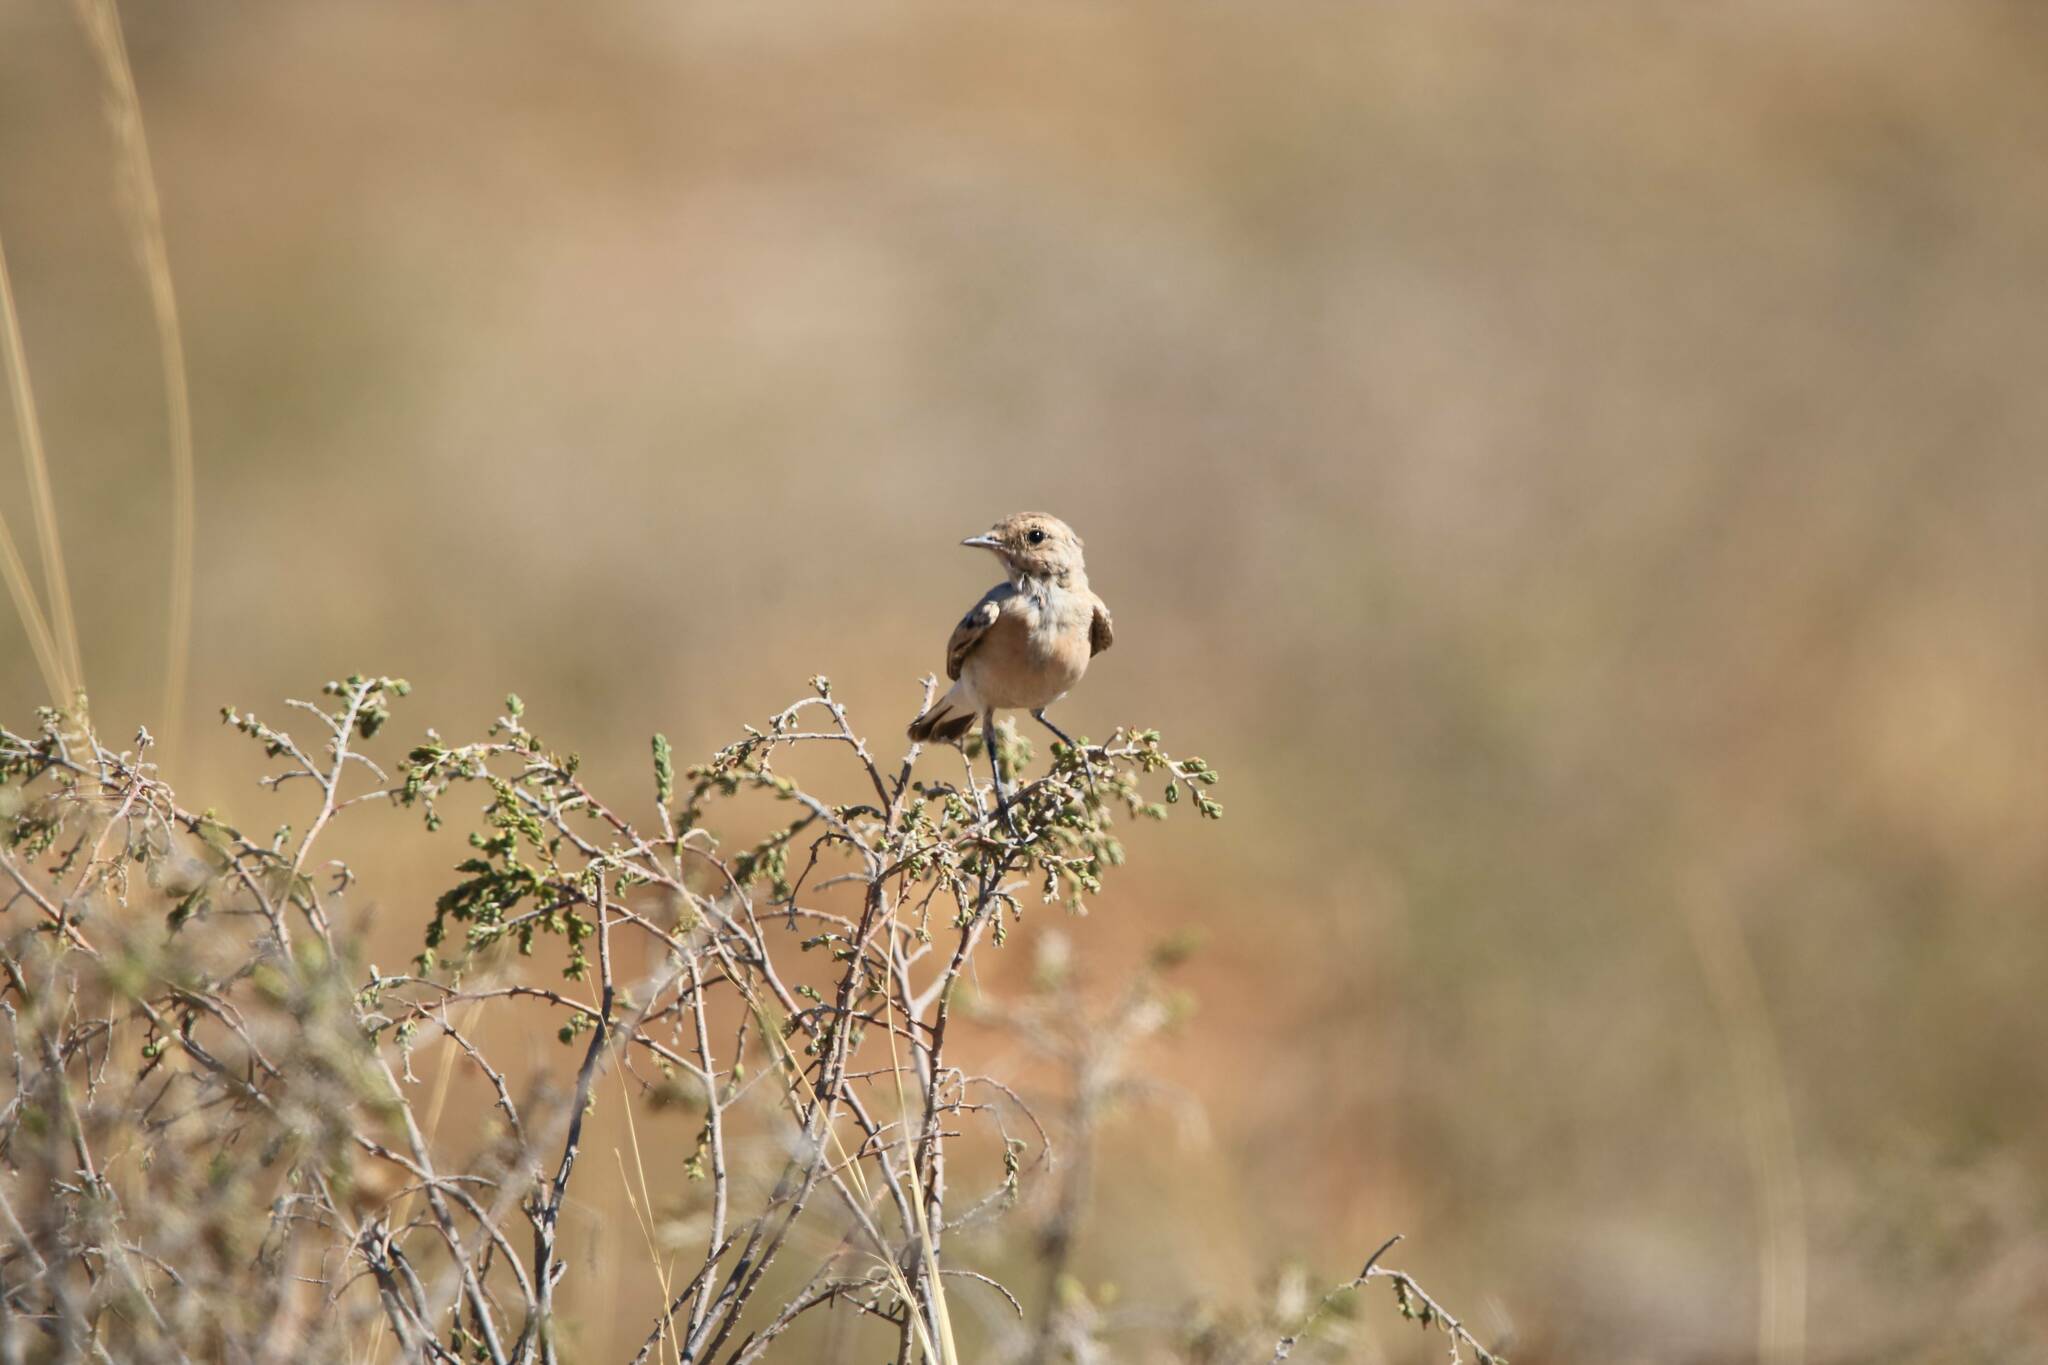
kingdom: Animalia
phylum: Chordata
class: Aves
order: Passeriformes
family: Muscicapidae
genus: Oenanthe
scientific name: Oenanthe hispanica
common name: Black-eared wheatear
